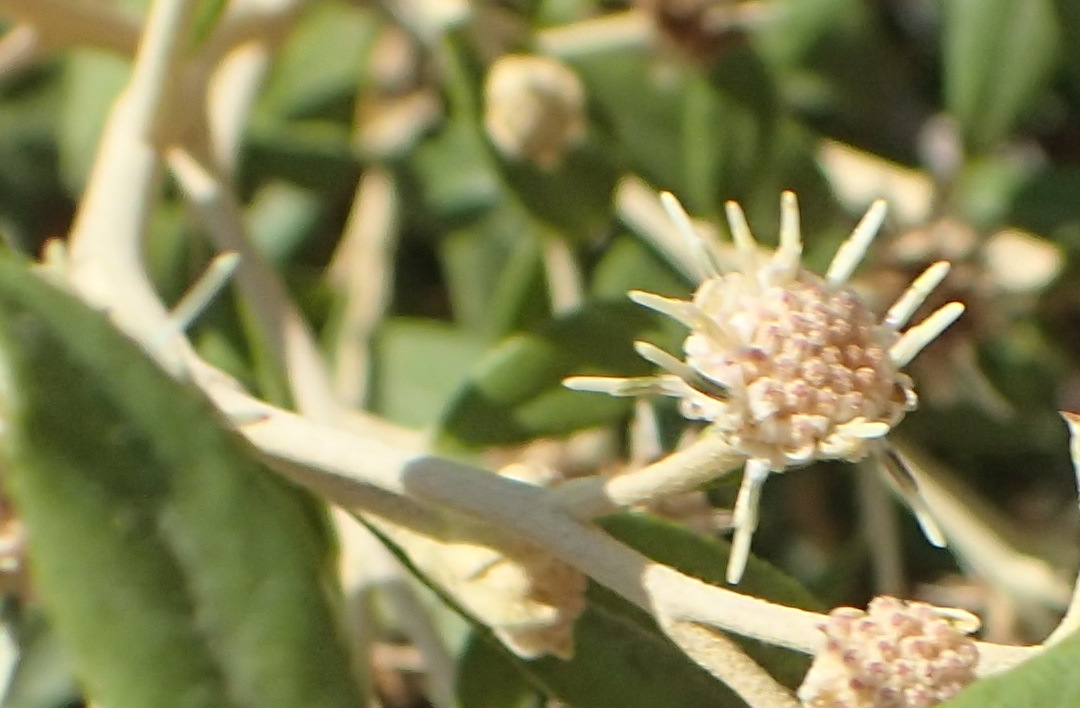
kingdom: Plantae
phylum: Tracheophyta
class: Magnoliopsida
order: Asterales
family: Asteraceae
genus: Tarchonanthus
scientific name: Tarchonanthus littoralis
